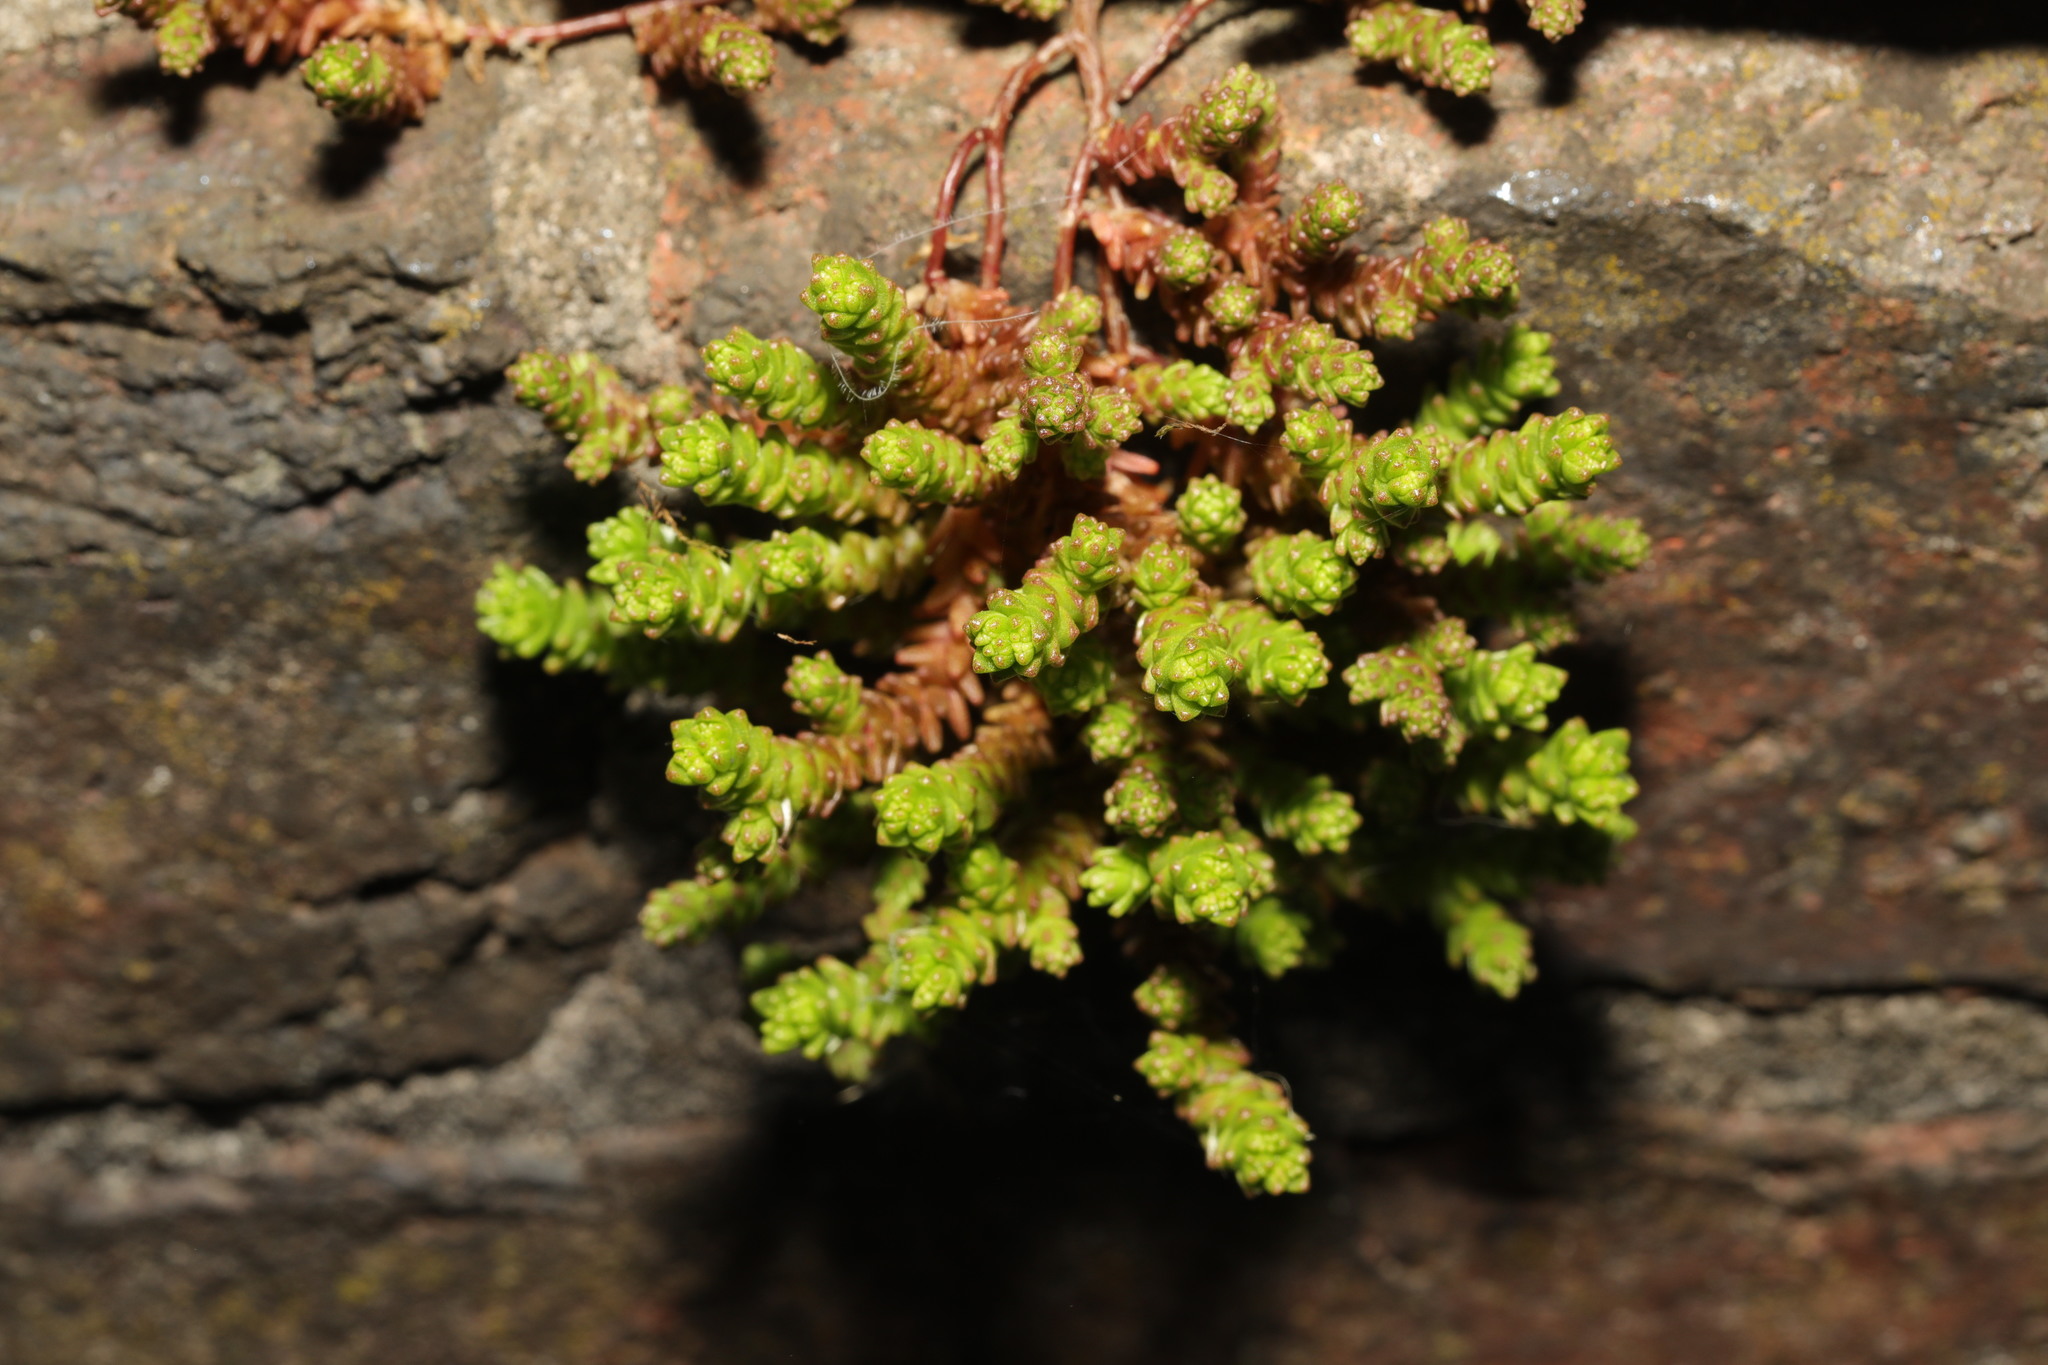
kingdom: Plantae
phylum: Tracheophyta
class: Magnoliopsida
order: Saxifragales
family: Crassulaceae
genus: Sedum
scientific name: Sedum acre
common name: Biting stonecrop
